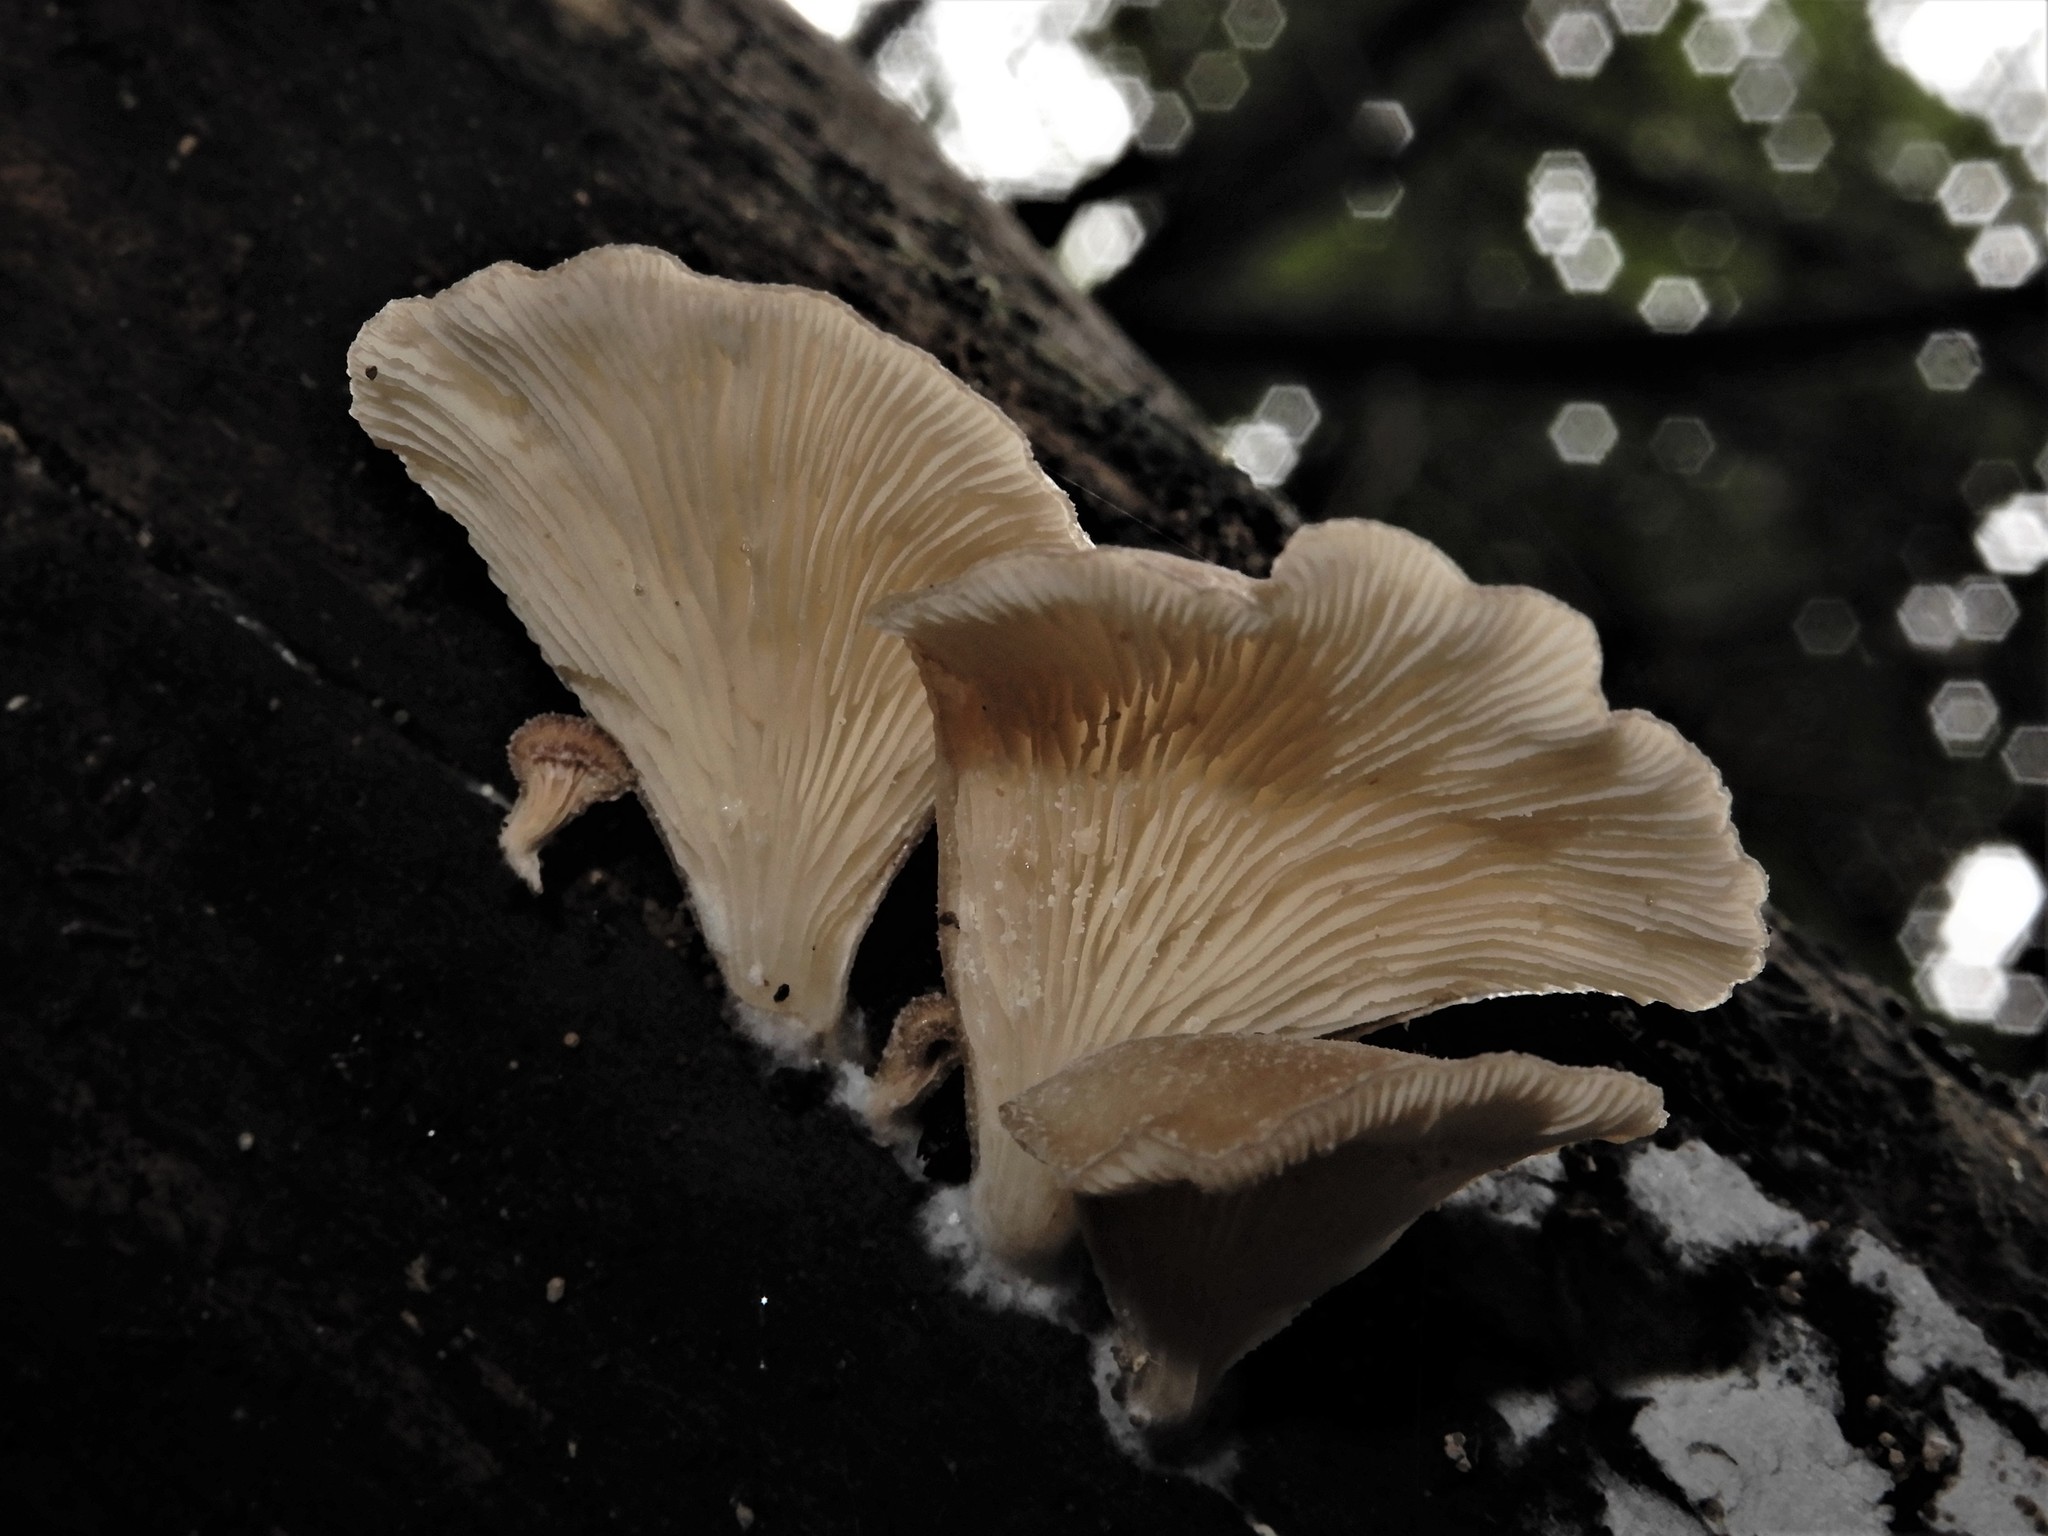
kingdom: Fungi
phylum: Basidiomycota
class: Agaricomycetes
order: Agaricales
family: Pleurotaceae
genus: Hohenbuehelia
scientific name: Hohenbuehelia
